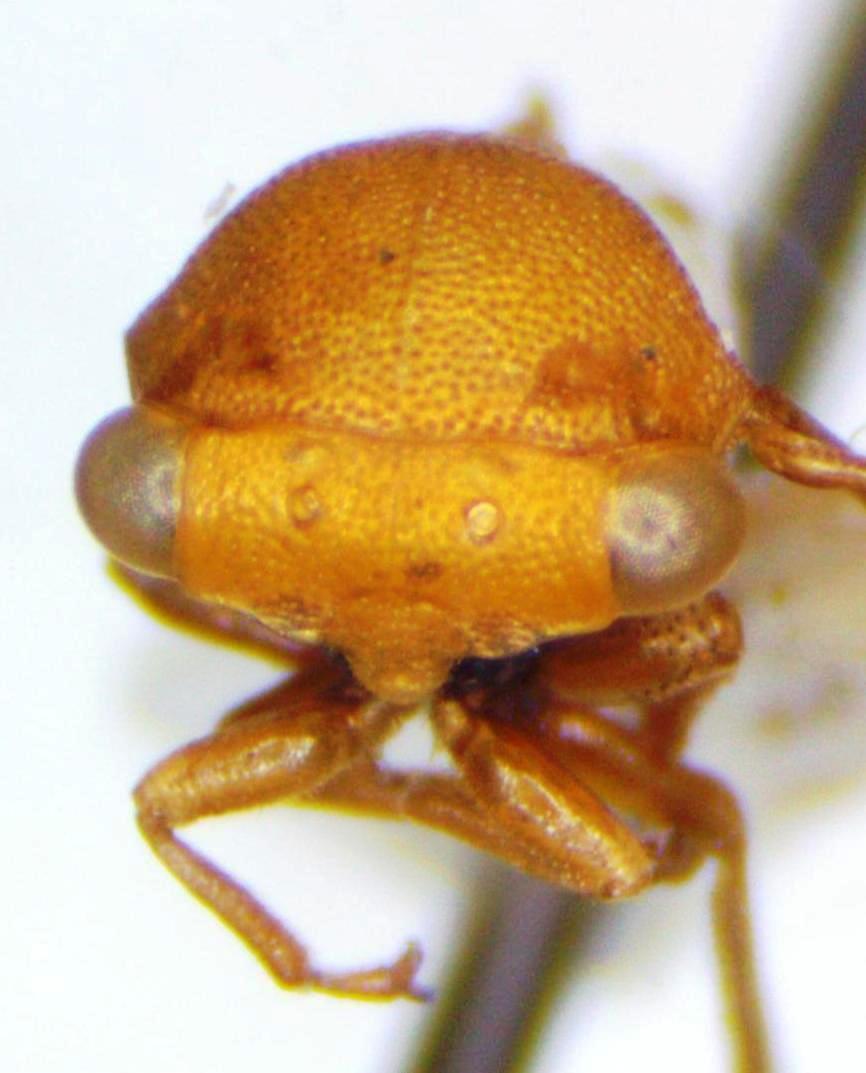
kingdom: Animalia
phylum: Arthropoda
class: Insecta
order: Hemiptera
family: Membracidae
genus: Procyrta
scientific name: Procyrta pectoralis
